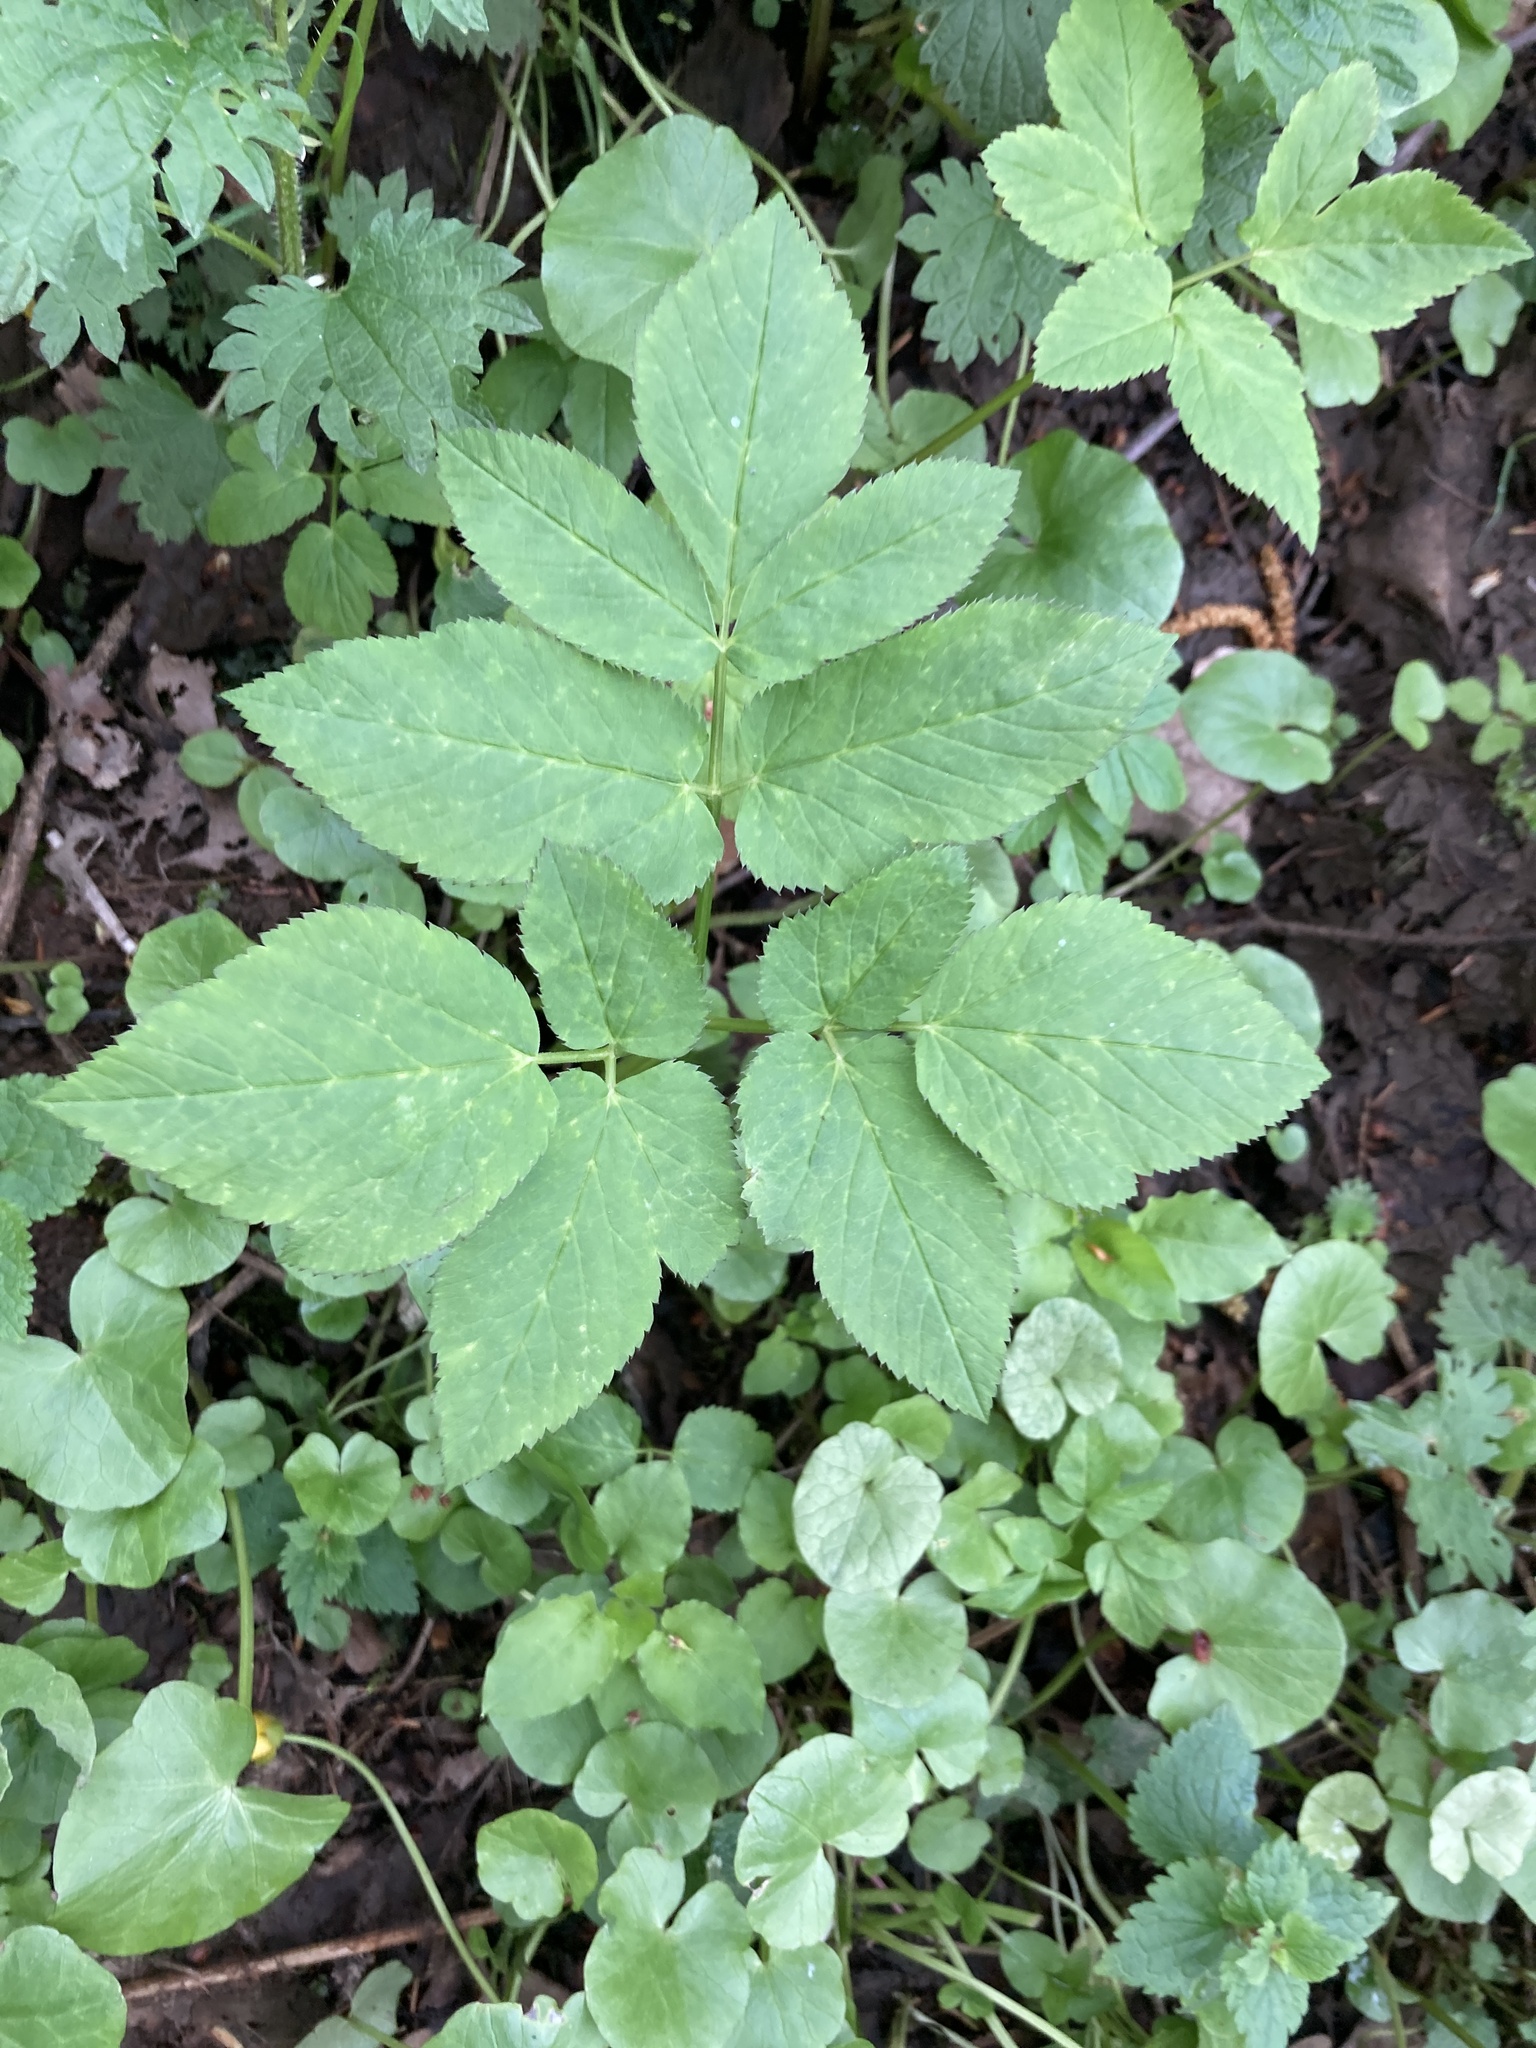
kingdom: Plantae
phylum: Tracheophyta
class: Magnoliopsida
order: Apiales
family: Apiaceae
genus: Aegopodium
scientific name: Aegopodium podagraria
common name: Ground-elder
